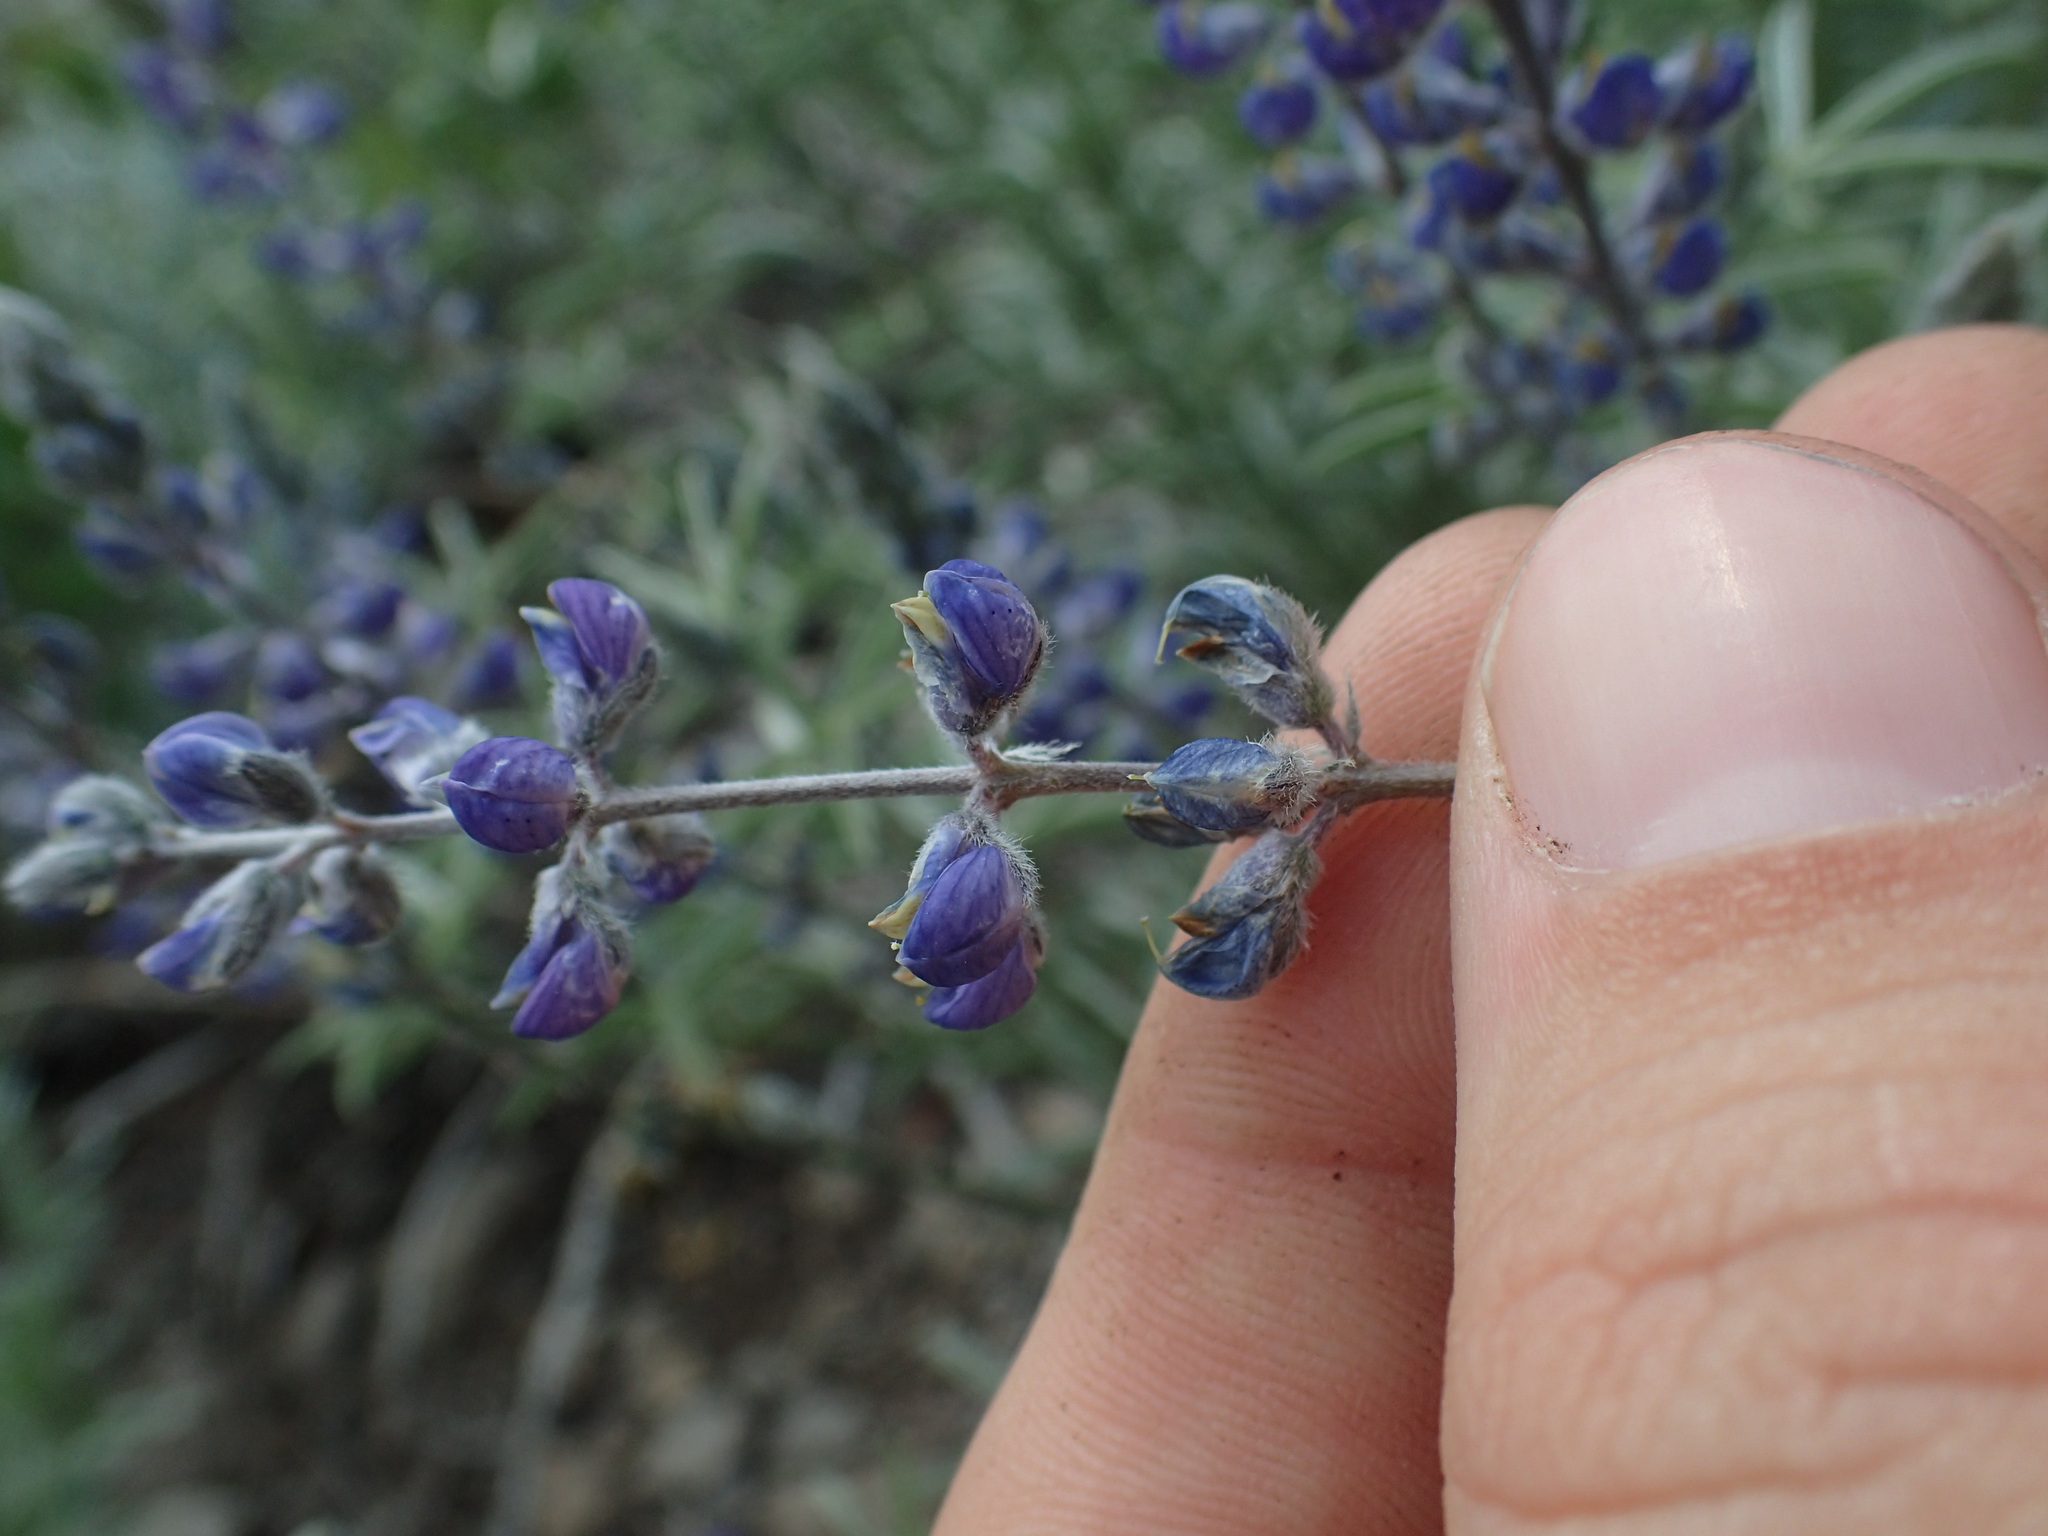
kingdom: Plantae
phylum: Tracheophyta
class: Magnoliopsida
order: Fabales
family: Fabaceae
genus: Lupinus
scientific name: Lupinus meionanthus
